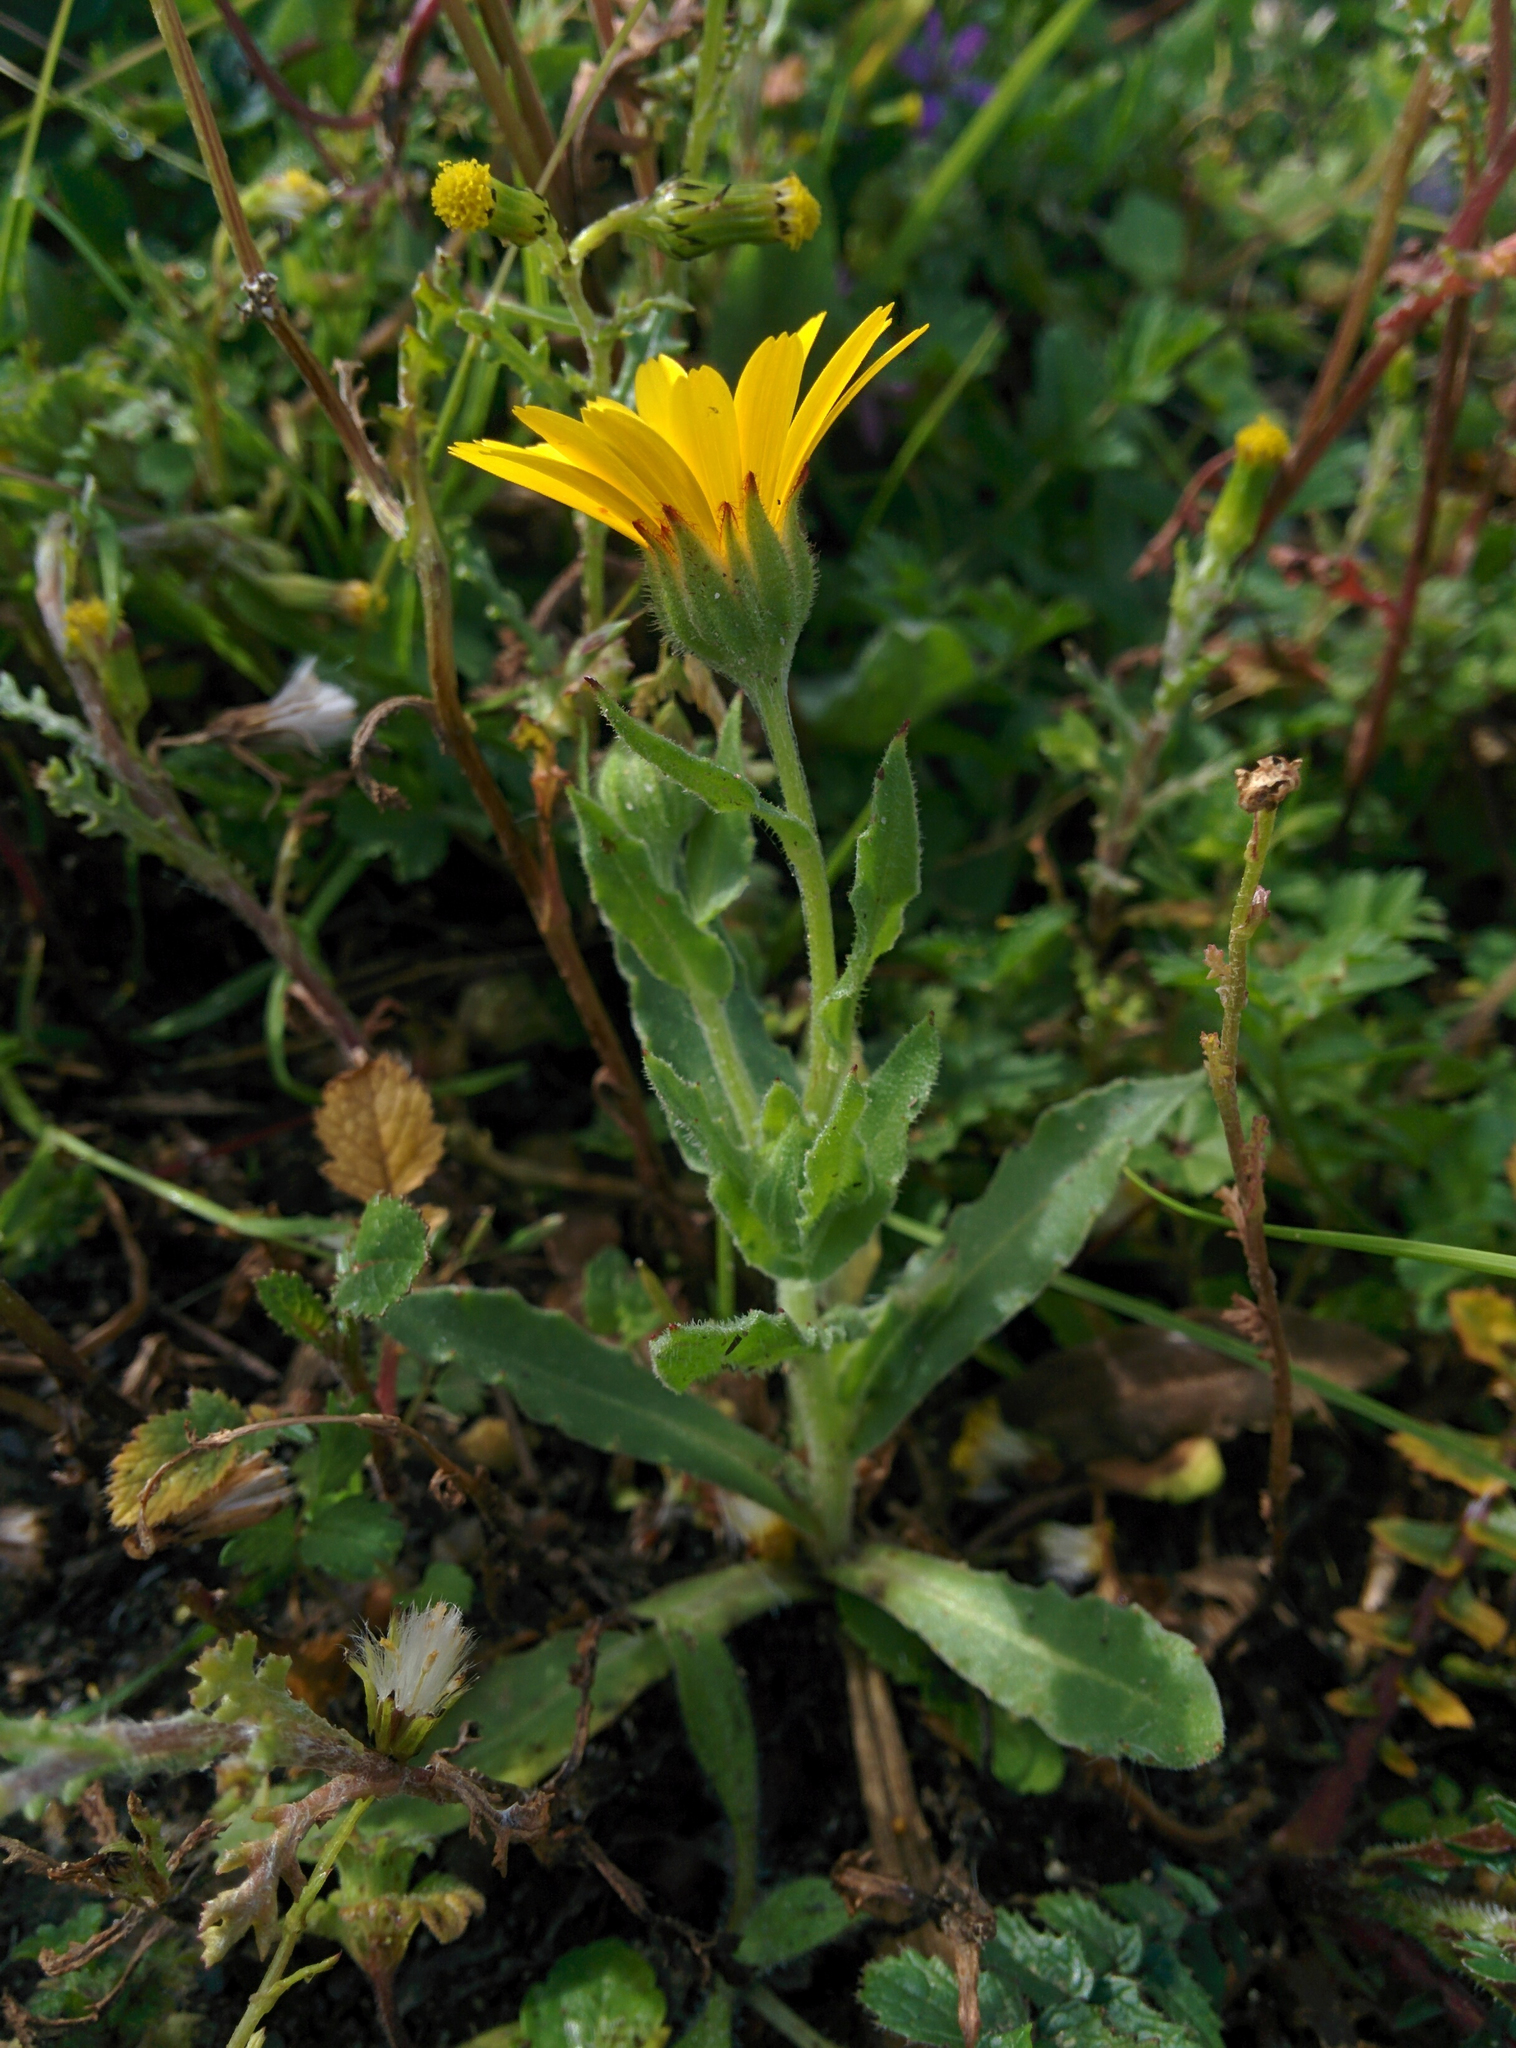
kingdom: Plantae
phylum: Tracheophyta
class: Magnoliopsida
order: Asterales
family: Asteraceae
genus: Calendula
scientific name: Calendula arvensis
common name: Field marigold
